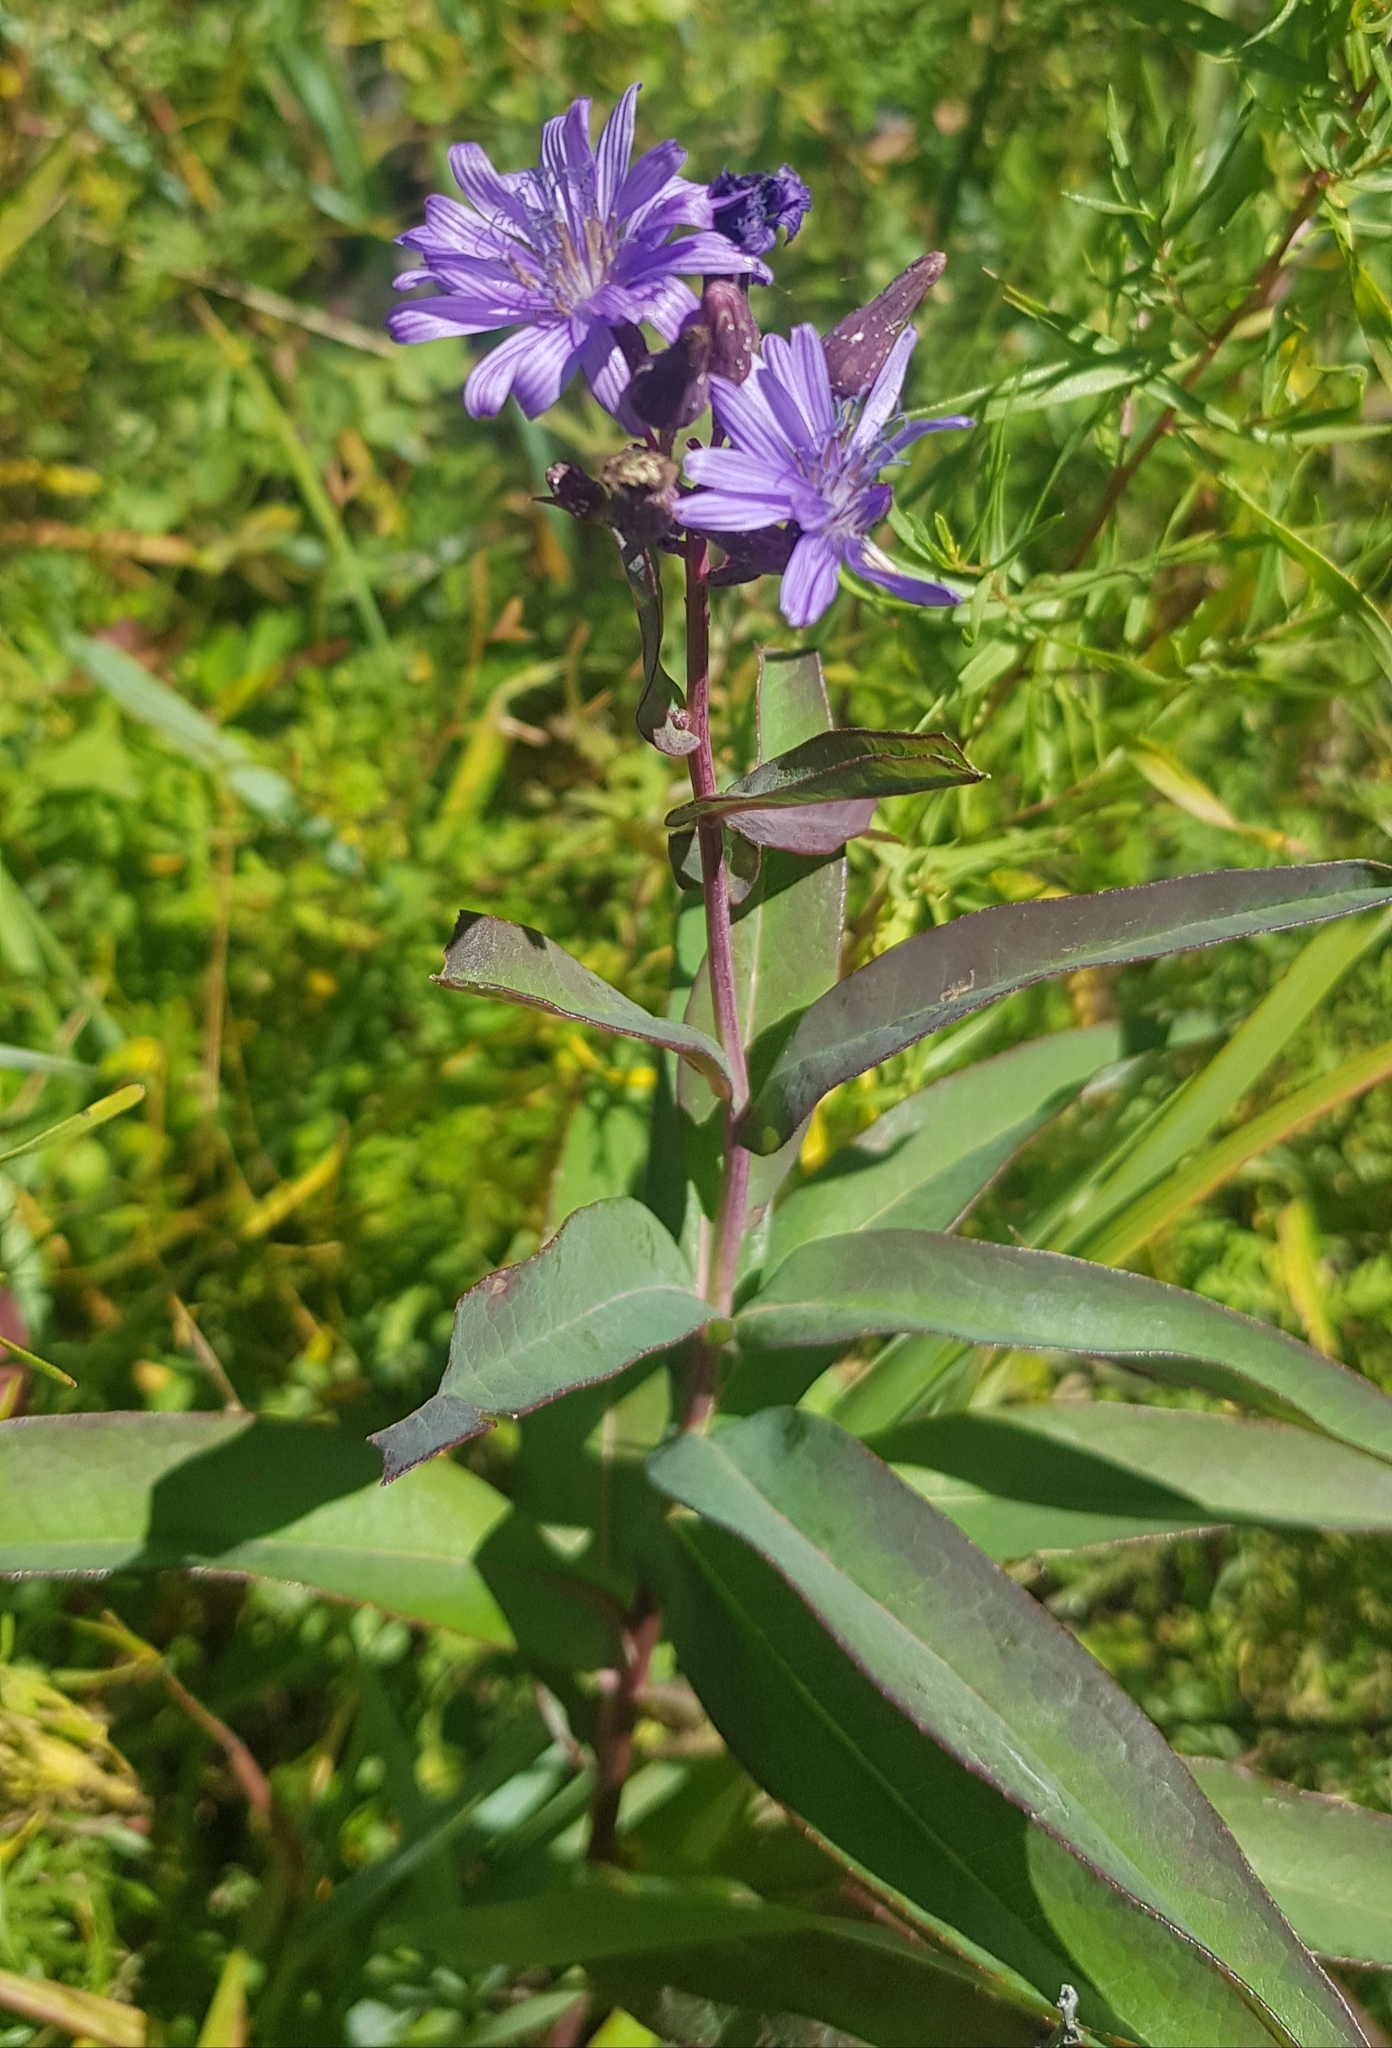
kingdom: Plantae
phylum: Tracheophyta
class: Magnoliopsida
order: Asterales
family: Asteraceae
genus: Lactuca
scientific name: Lactuca pulchella
